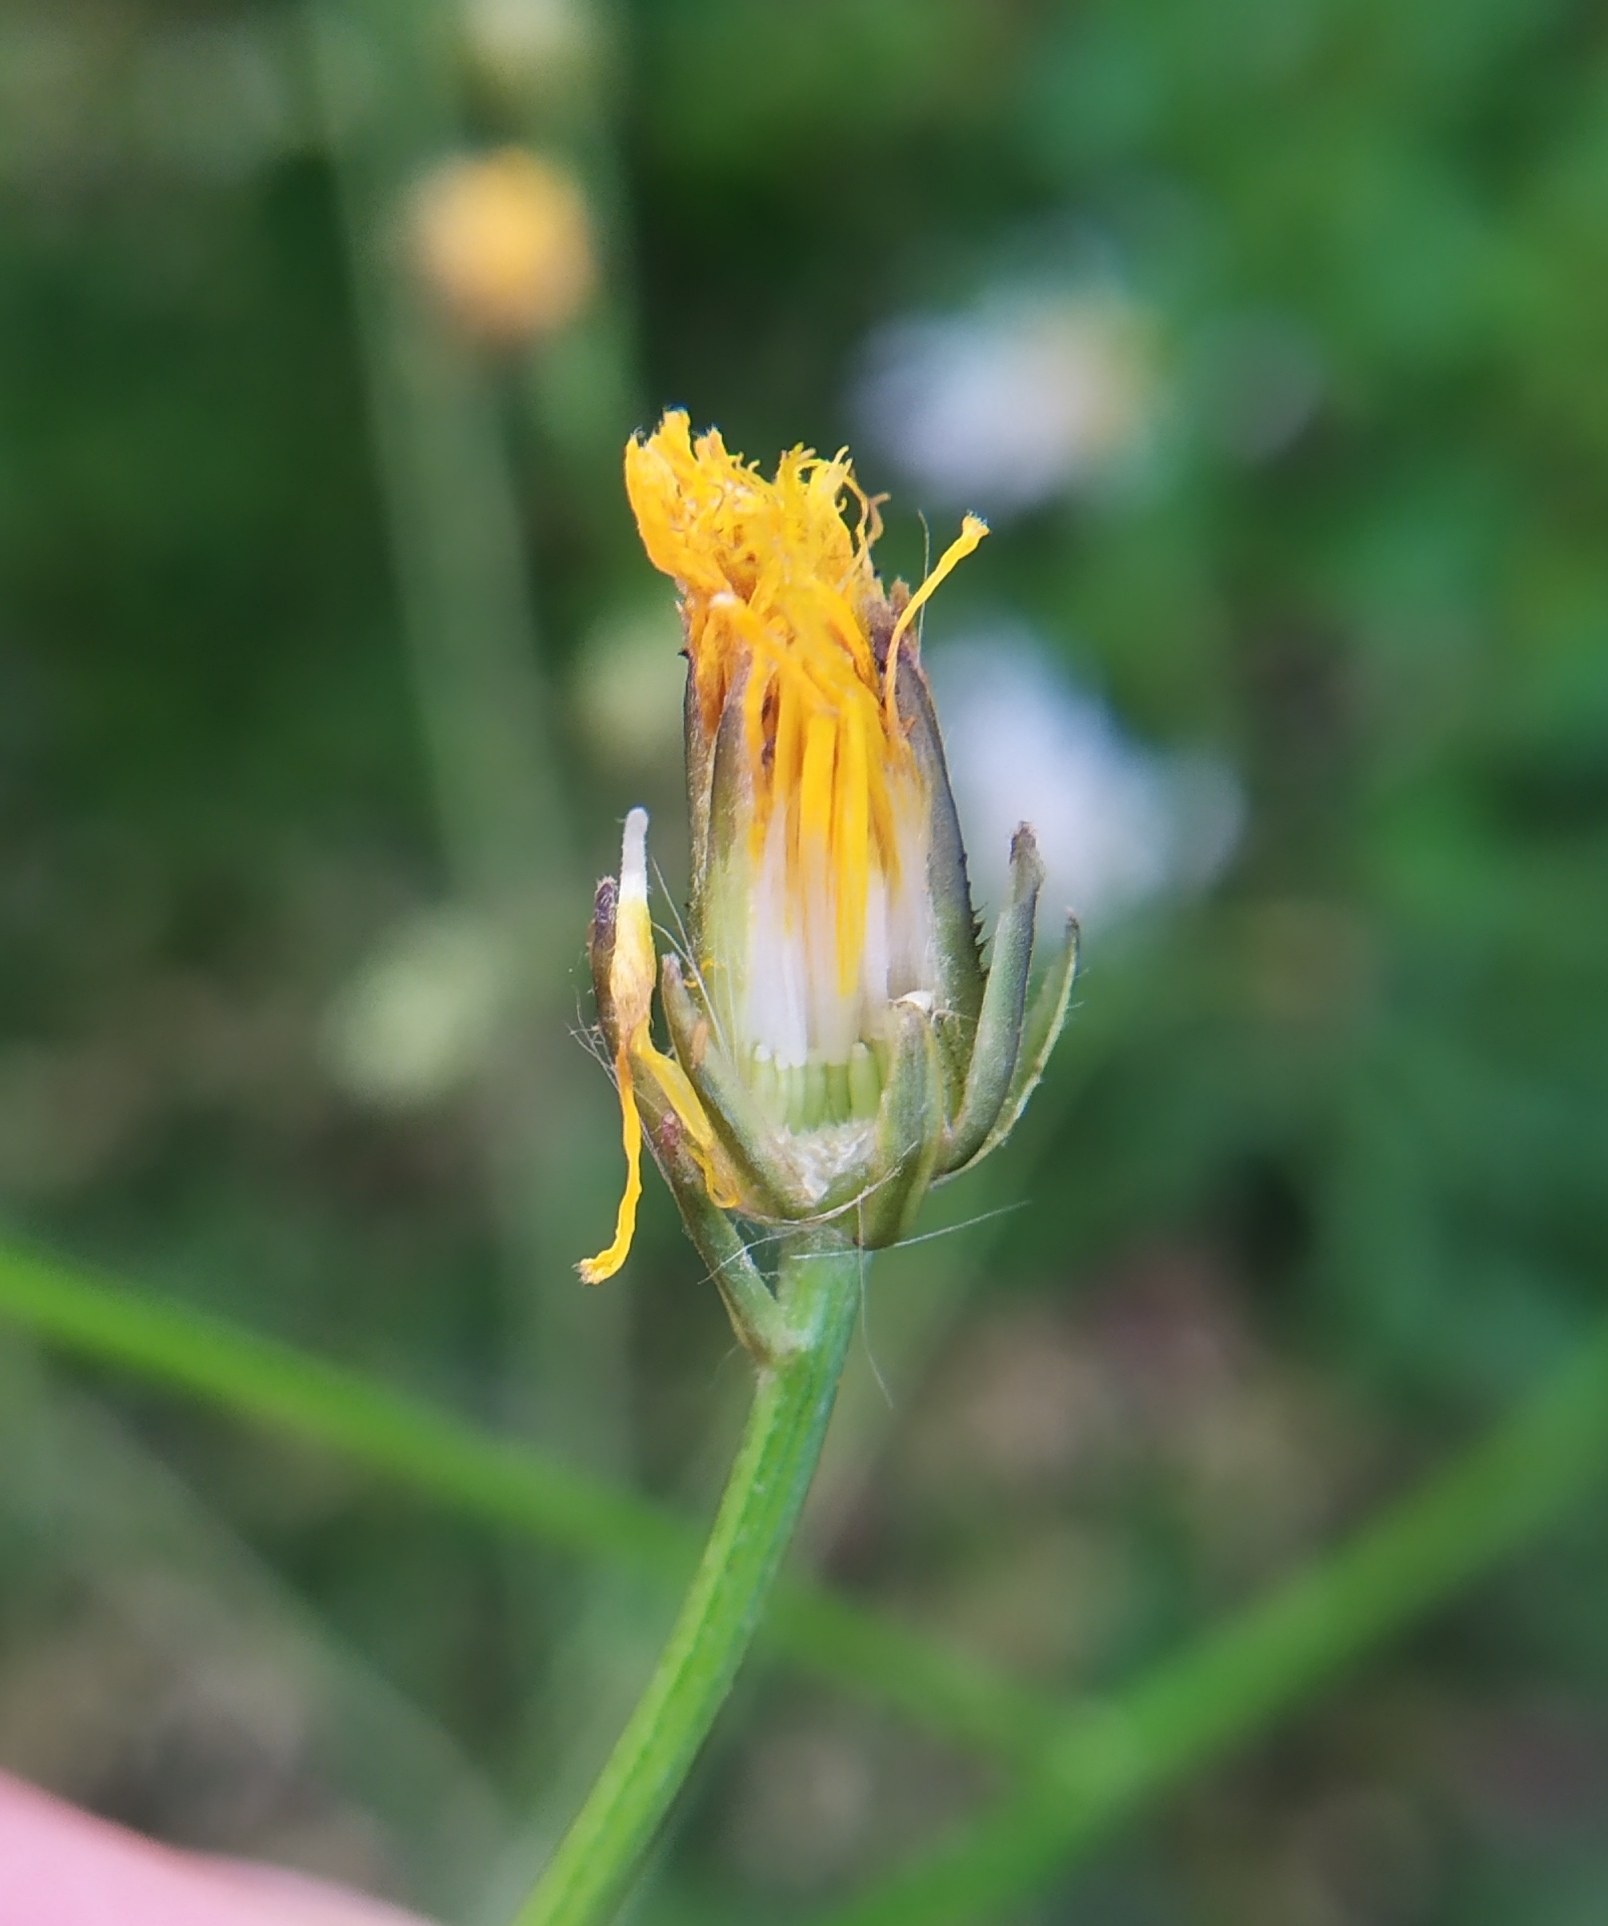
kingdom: Plantae
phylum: Tracheophyta
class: Magnoliopsida
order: Asterales
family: Asteraceae
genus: Crepis
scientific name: Crepis biennis
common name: Rough hawk's-beard
